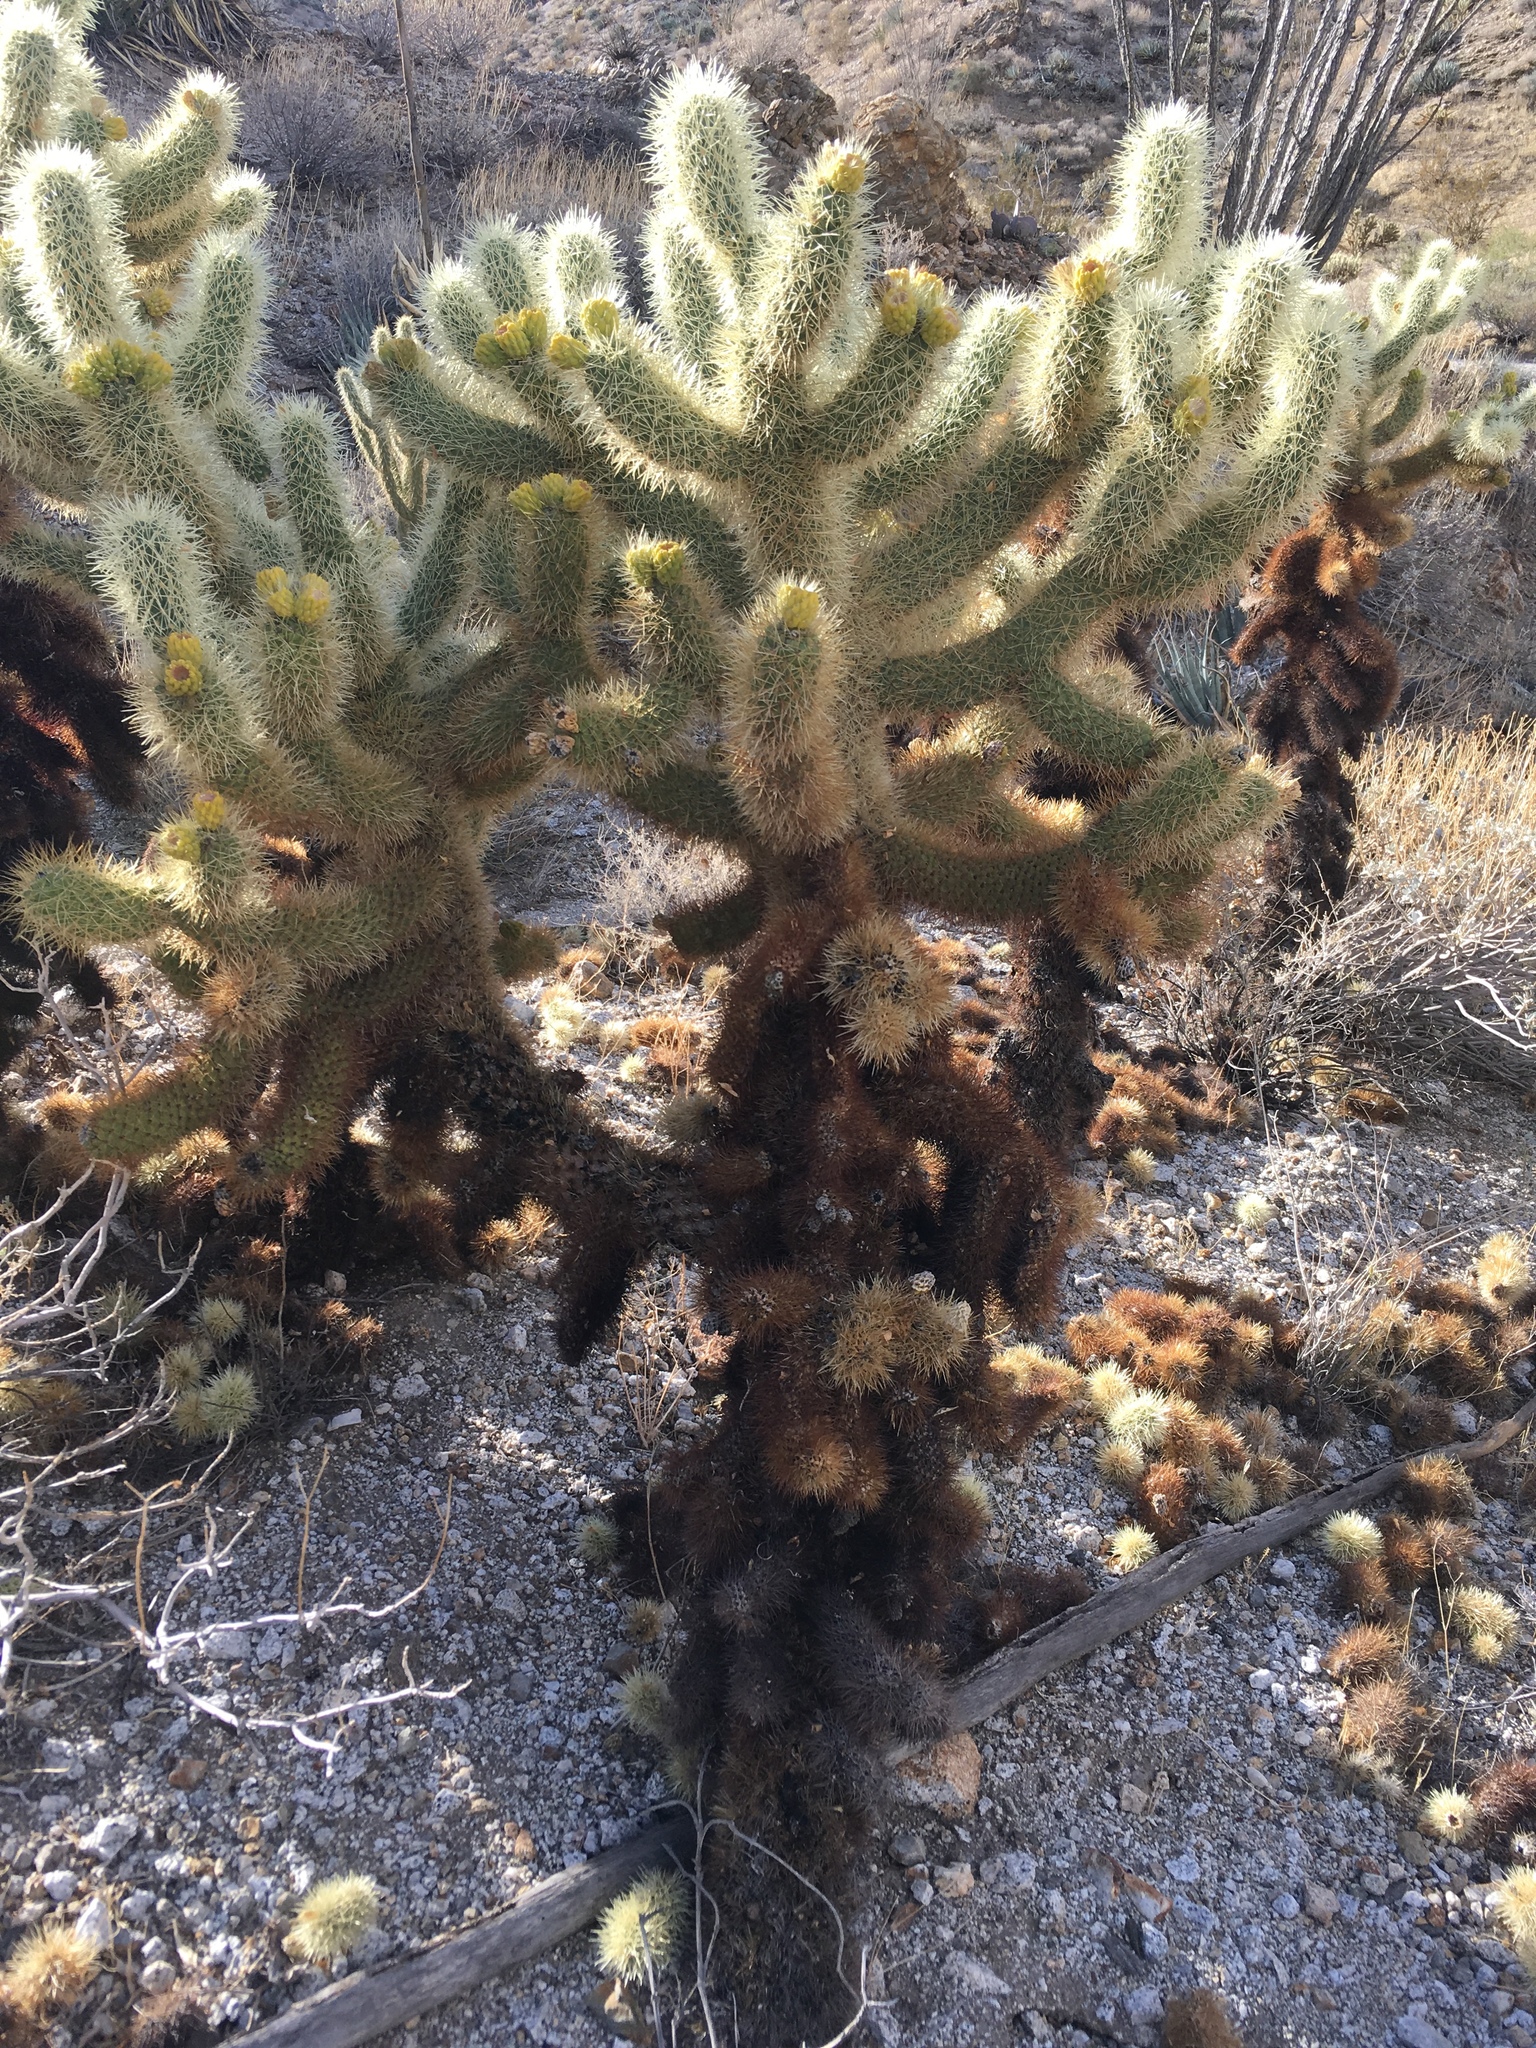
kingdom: Plantae
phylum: Tracheophyta
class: Magnoliopsida
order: Caryophyllales
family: Cactaceae
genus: Cylindropuntia
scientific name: Cylindropuntia fosbergii
